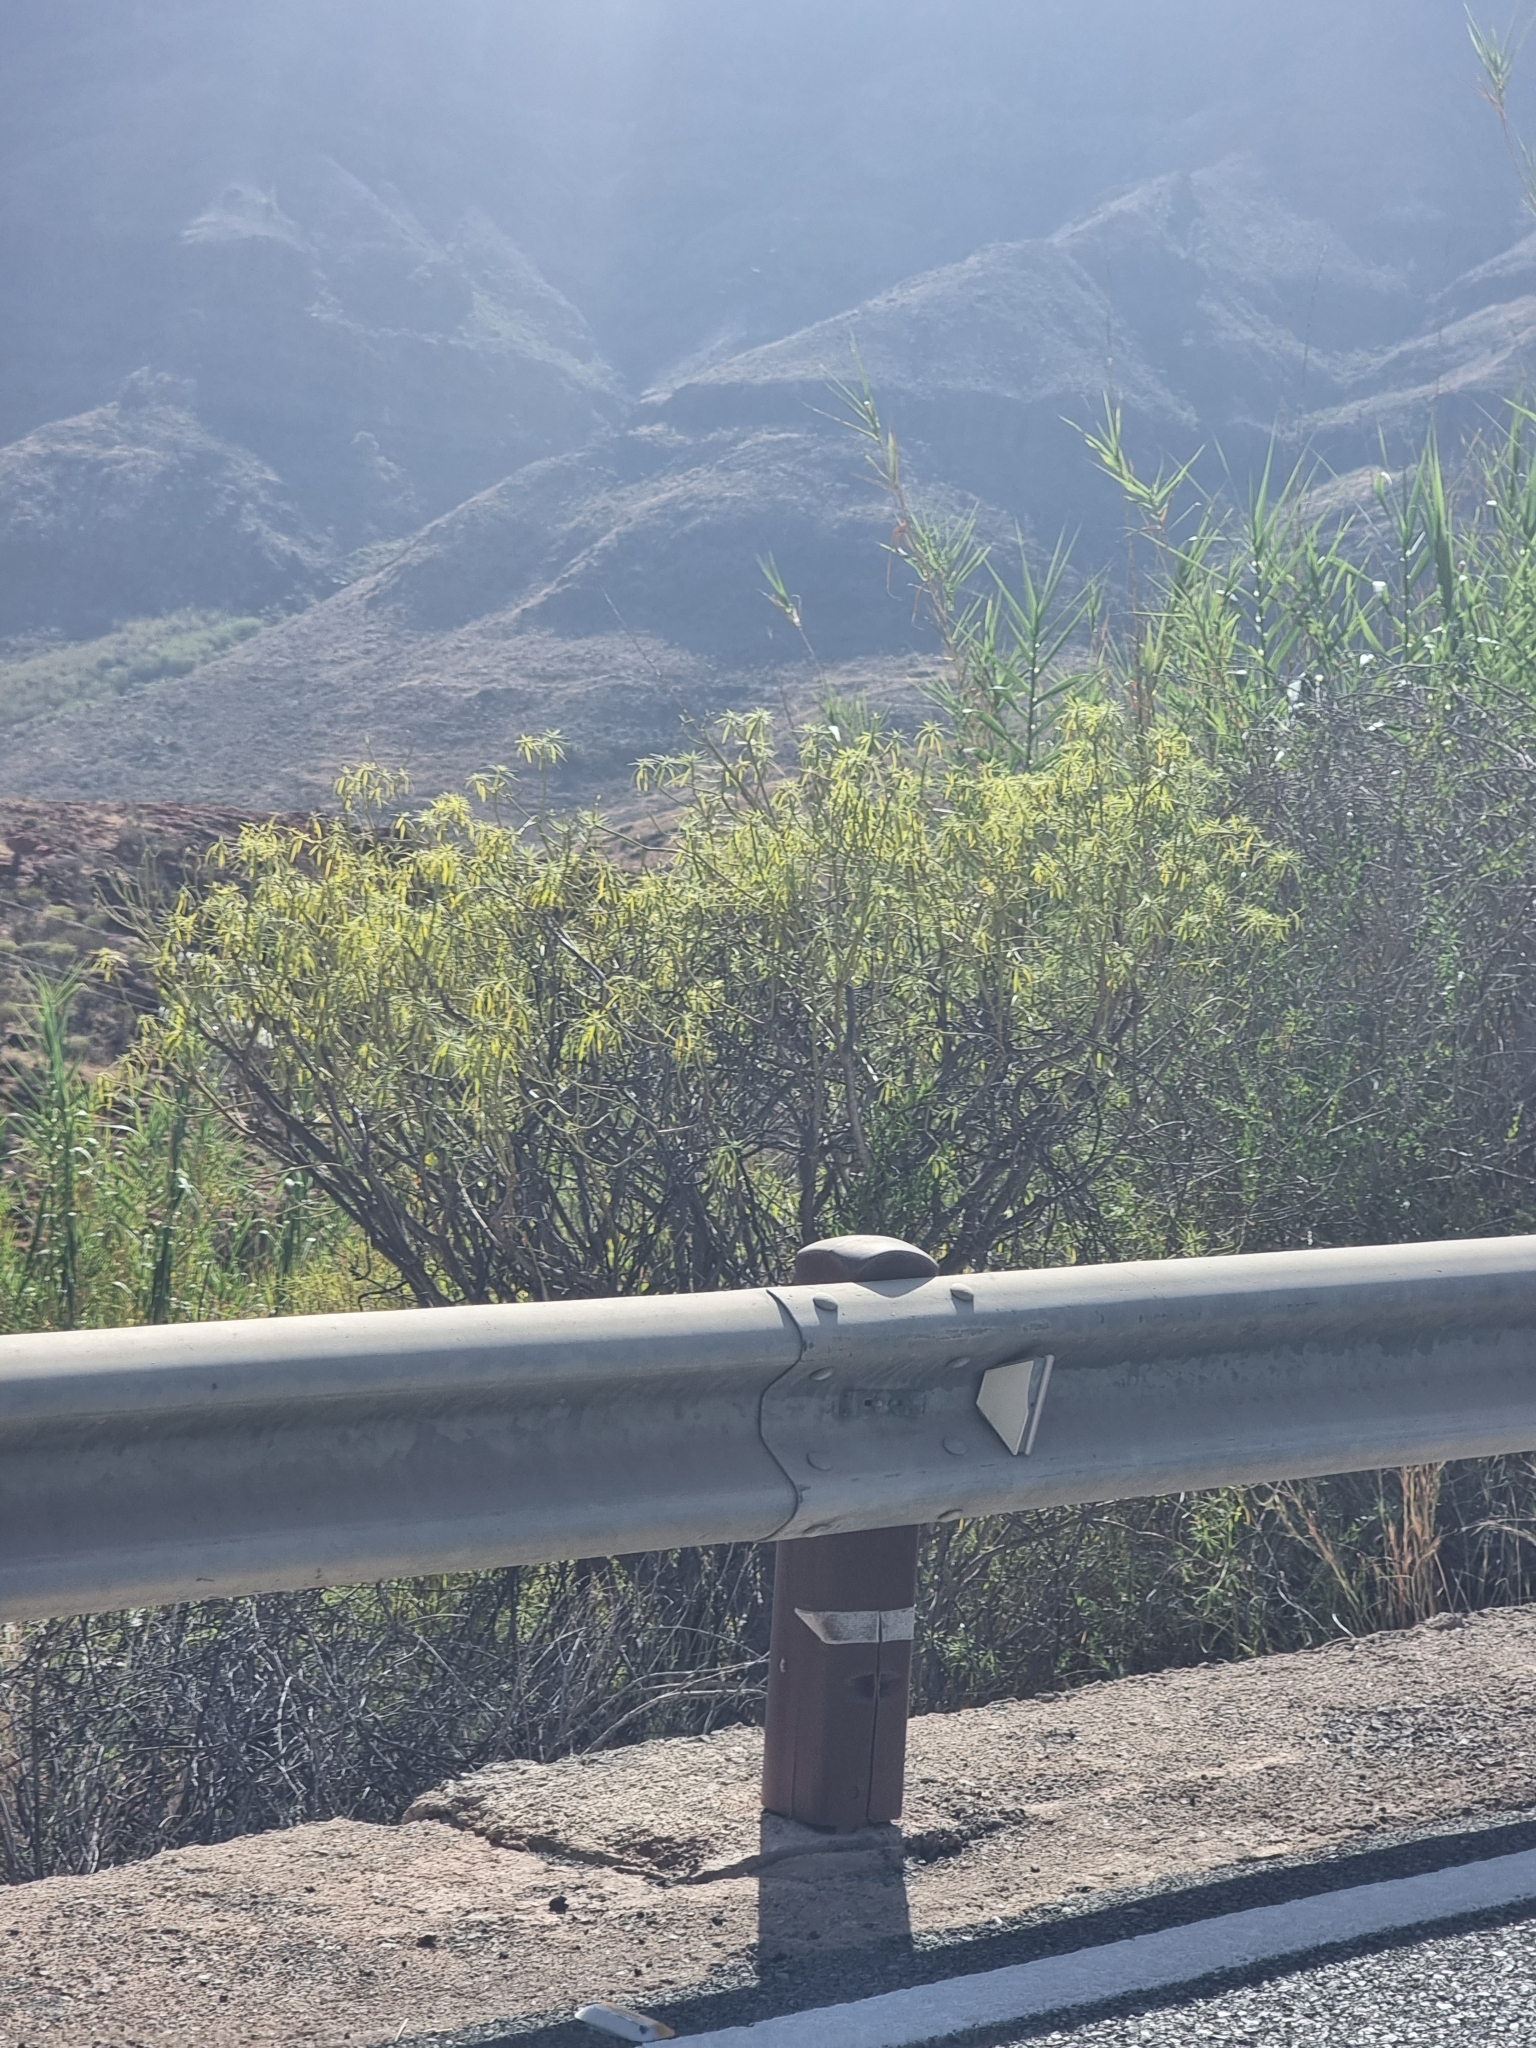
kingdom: Plantae
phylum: Tracheophyta
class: Magnoliopsida
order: Malpighiales
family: Euphorbiaceae
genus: Euphorbia
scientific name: Euphorbia regis-jubae
